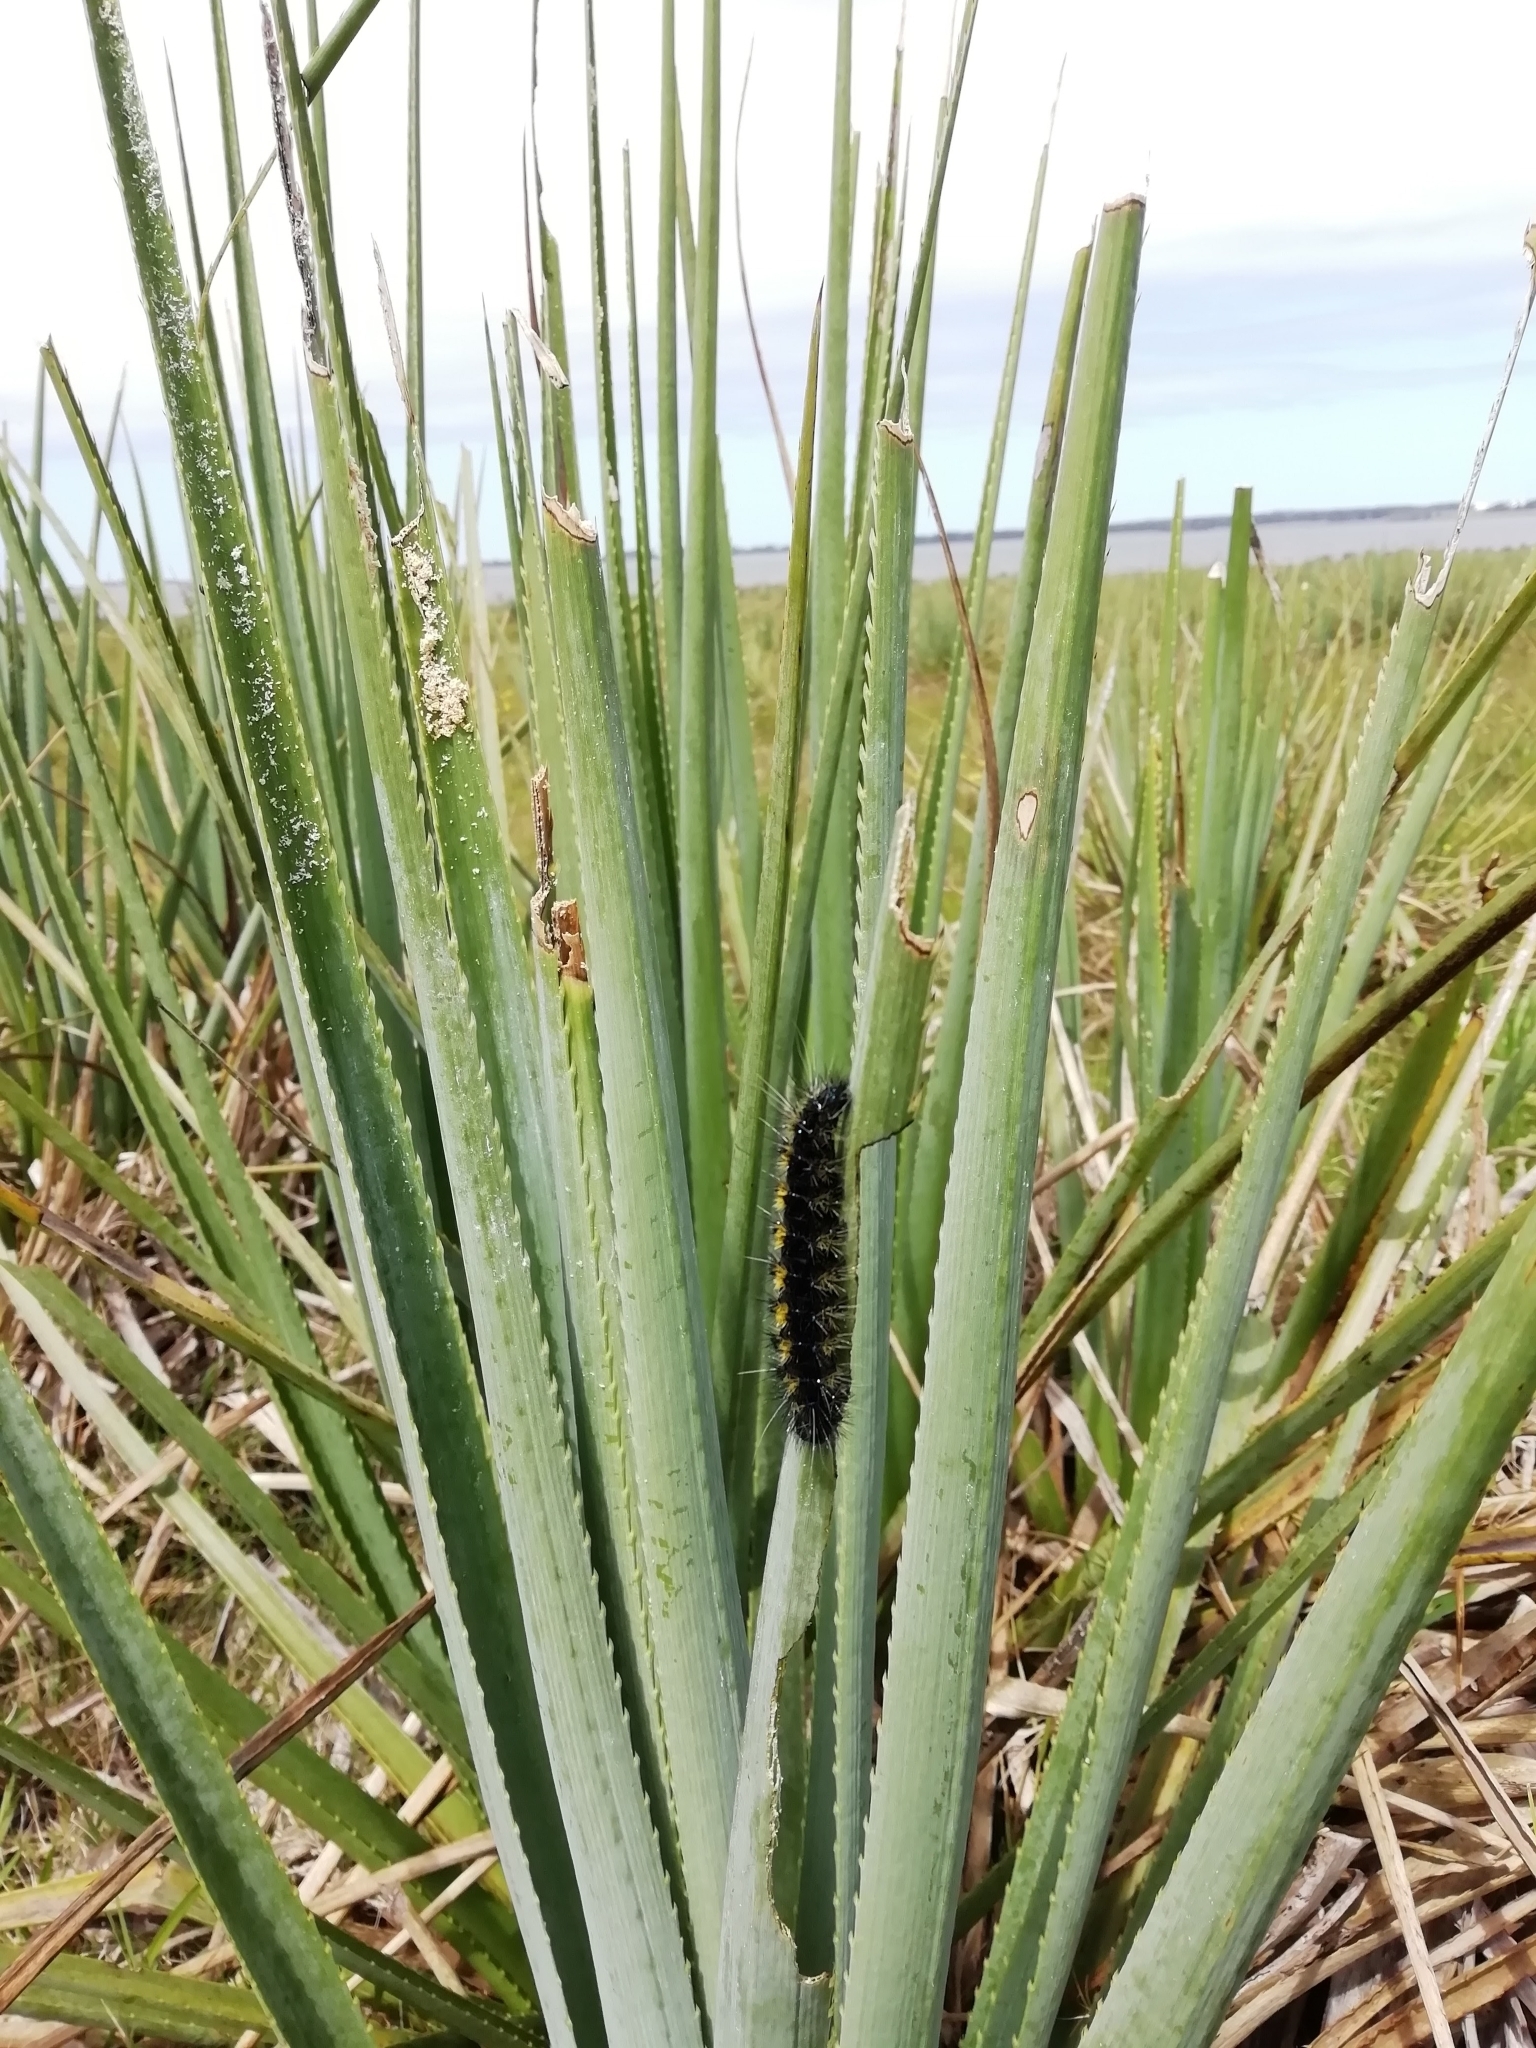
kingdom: Animalia
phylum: Arthropoda
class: Insecta
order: Lepidoptera
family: Erebidae
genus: Dysschema
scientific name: Dysschema centenaria
